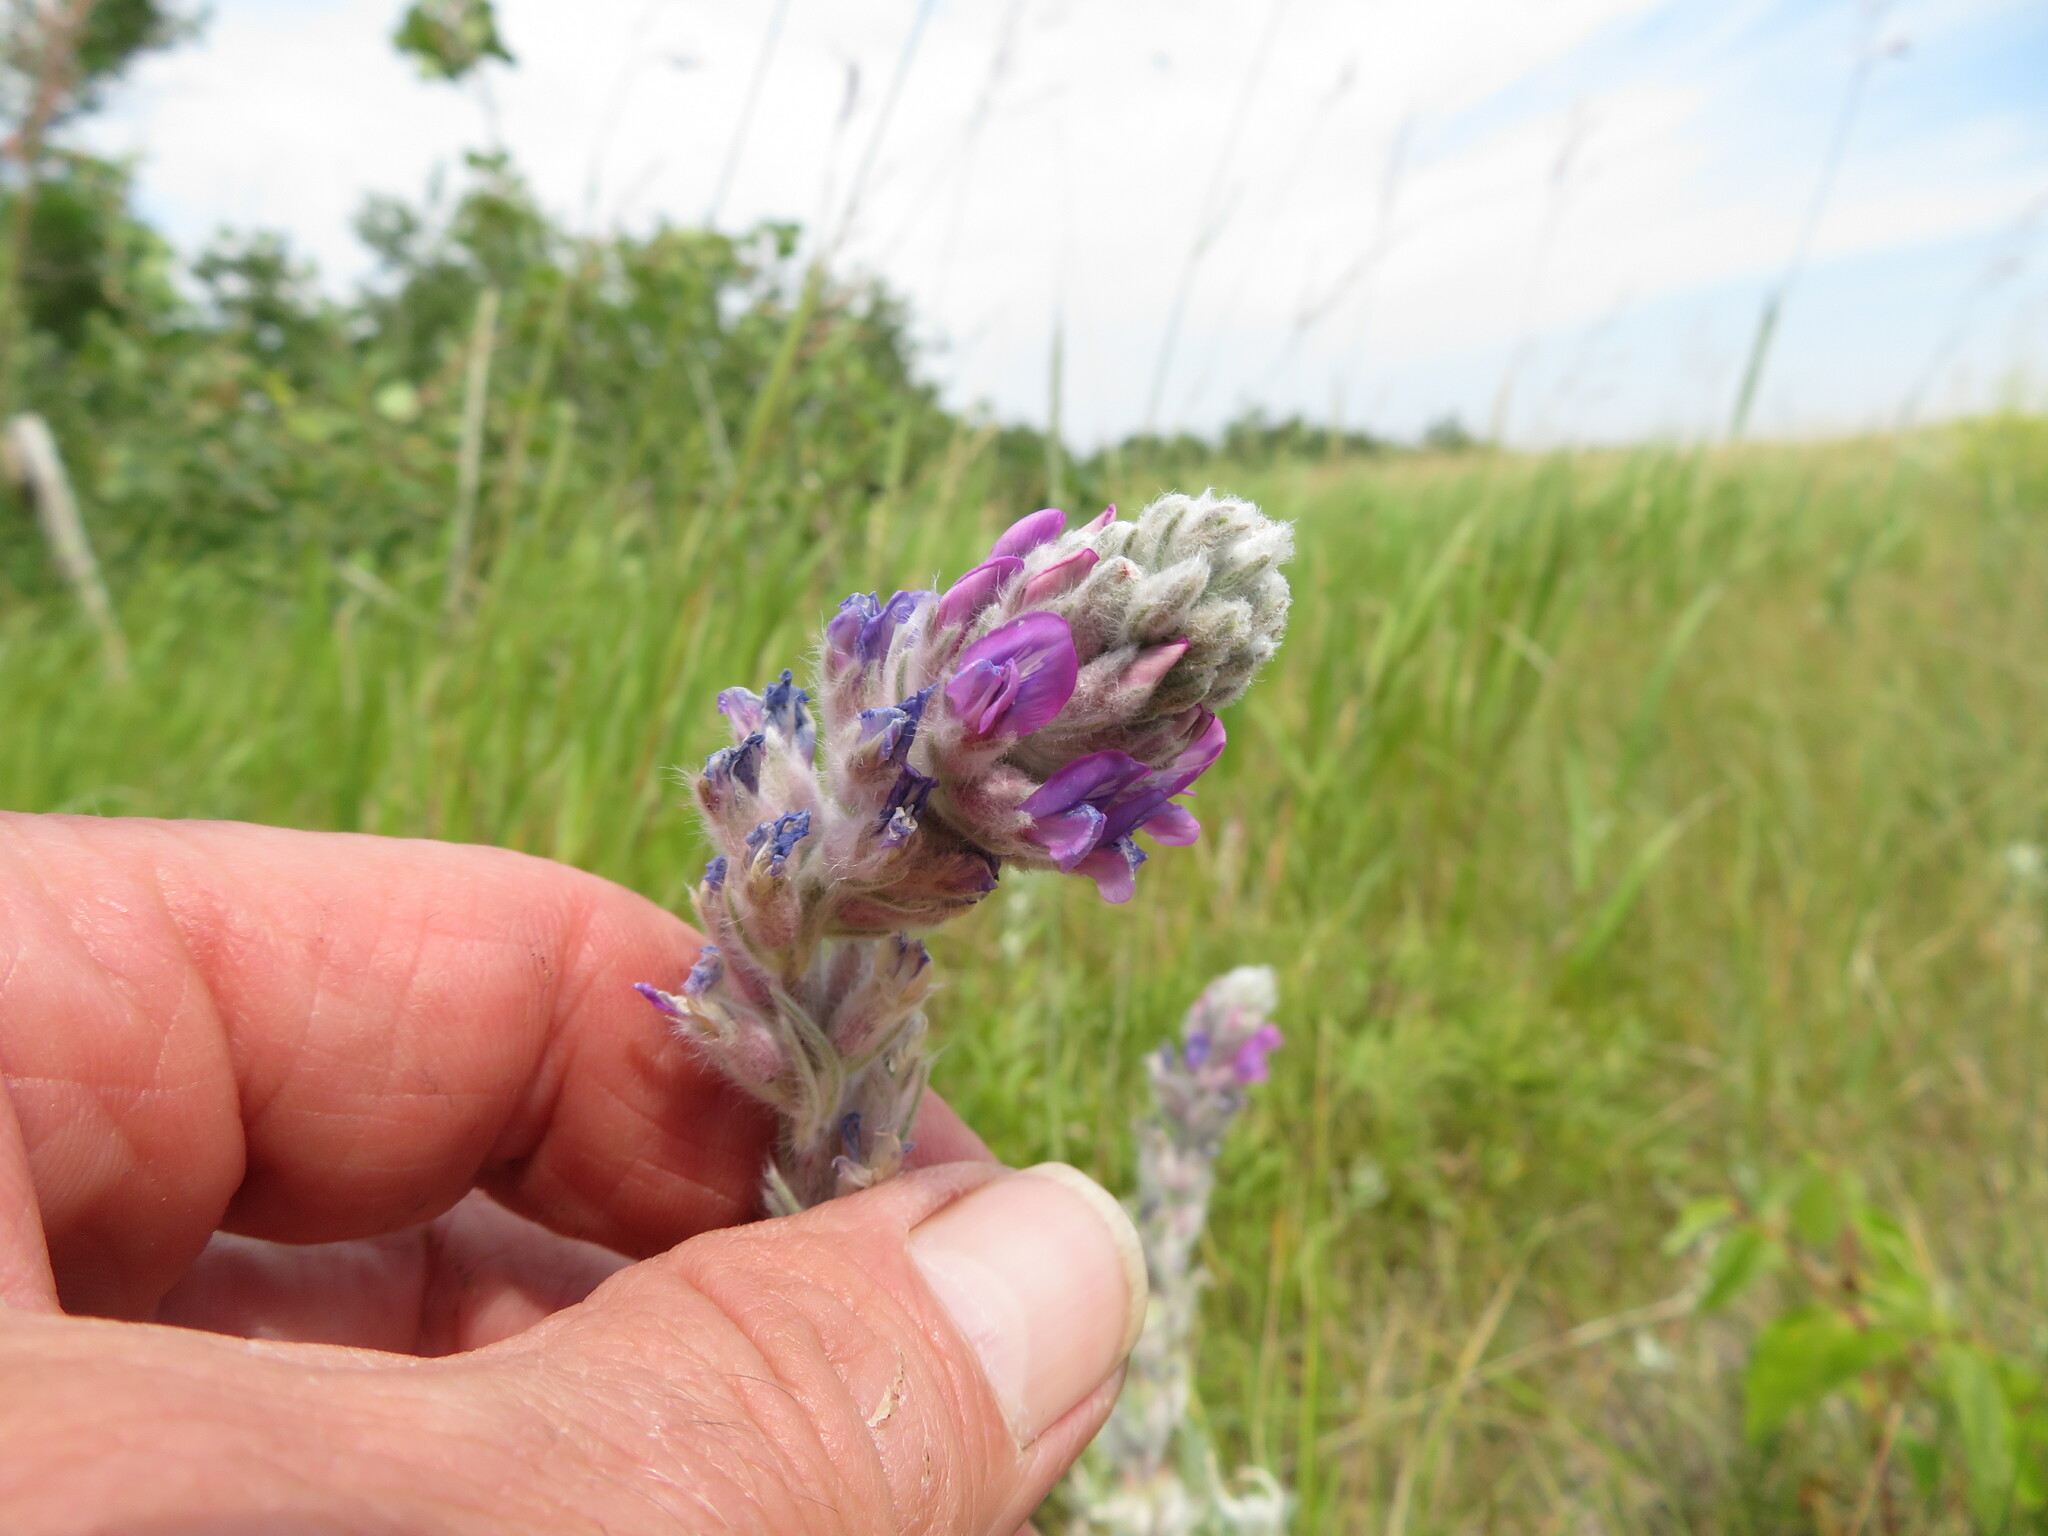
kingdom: Plantae
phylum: Tracheophyta
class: Magnoliopsida
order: Fabales
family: Fabaceae
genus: Oxytropis
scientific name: Oxytropis splendens
